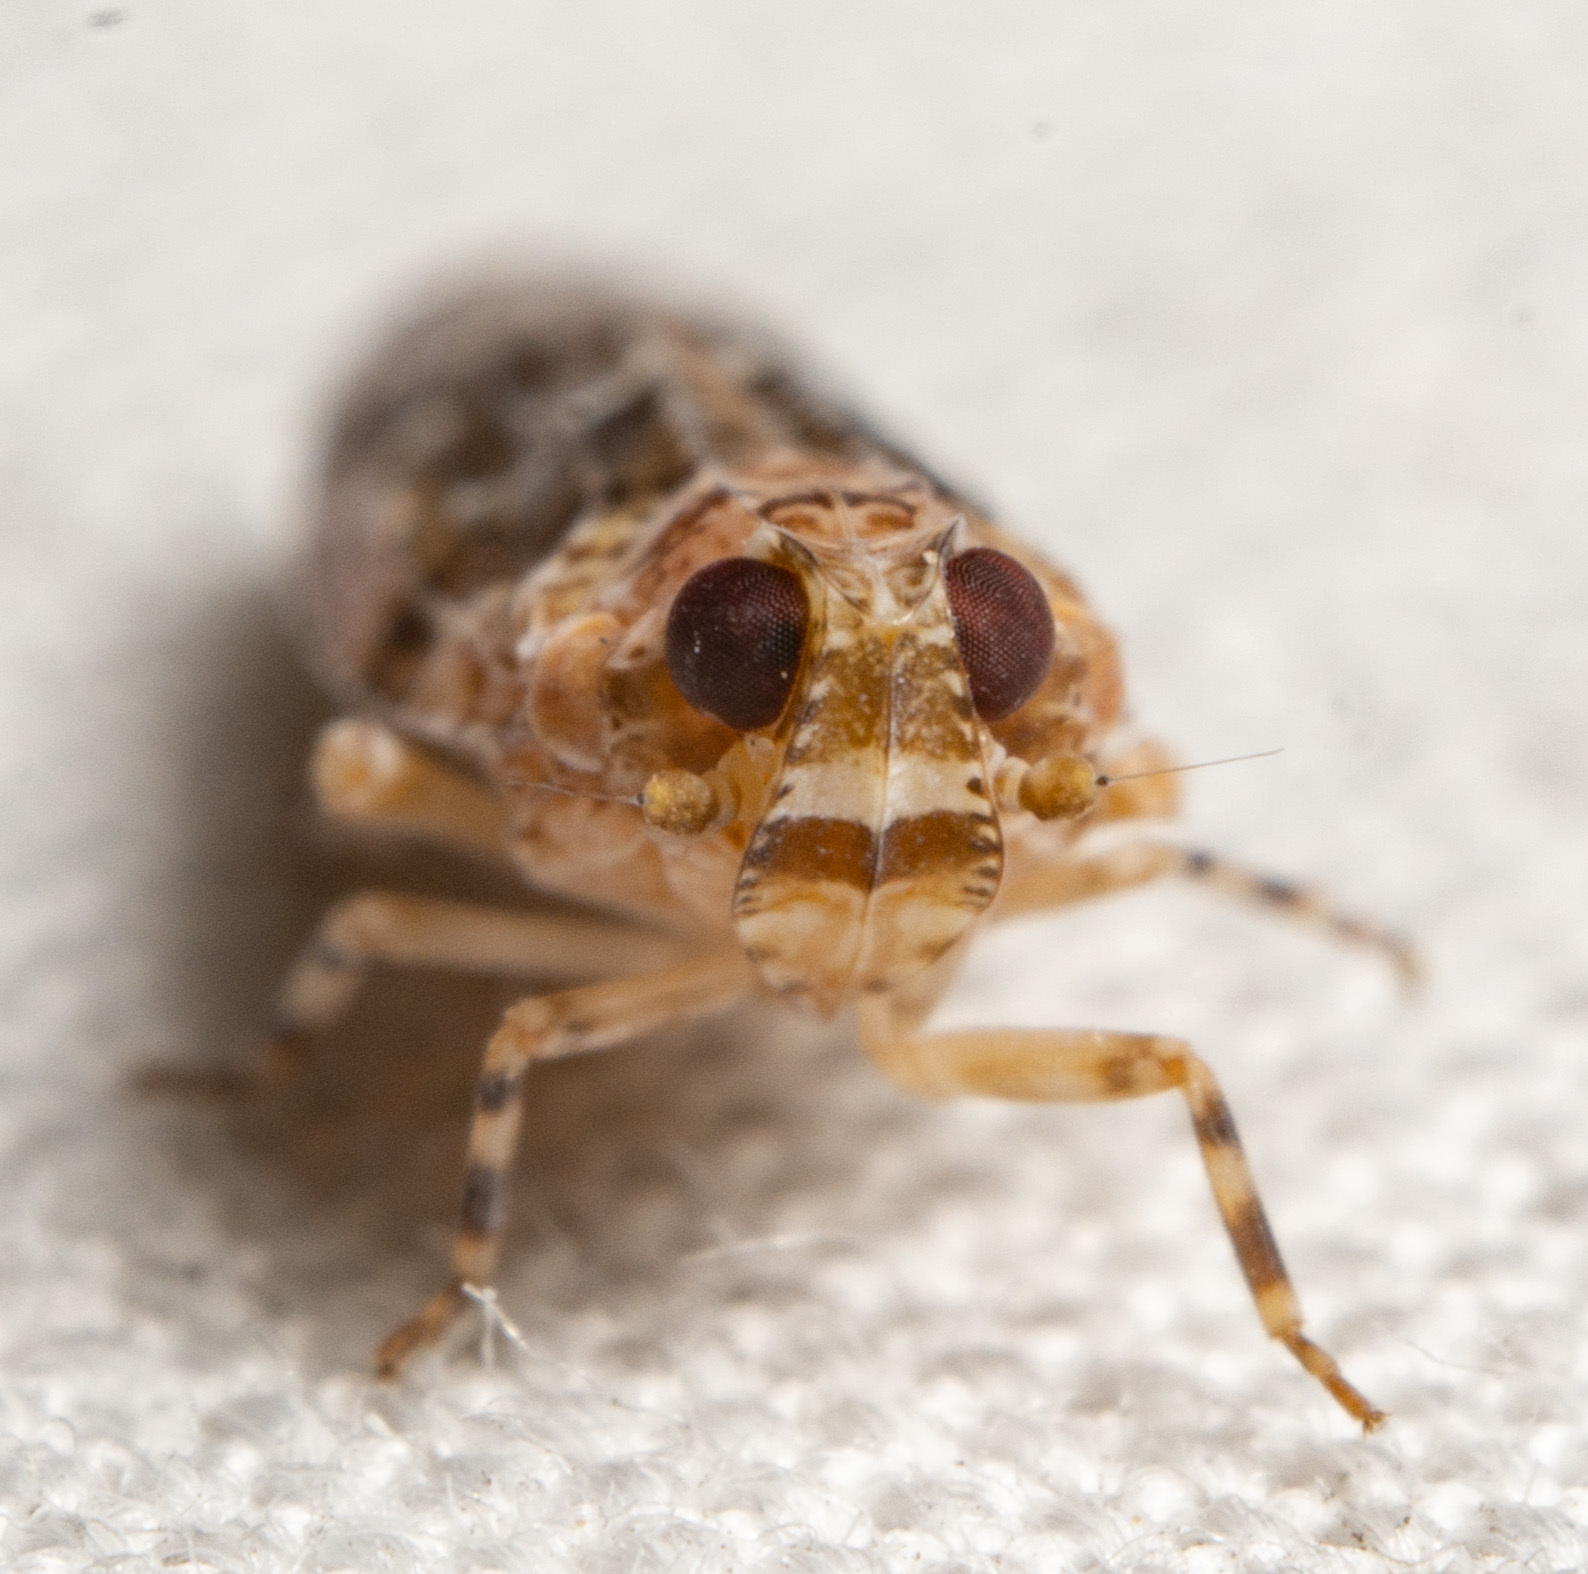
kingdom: Animalia
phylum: Arthropoda
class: Insecta
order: Hemiptera
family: Achilidae
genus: Catonia
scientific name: Catonia nava
